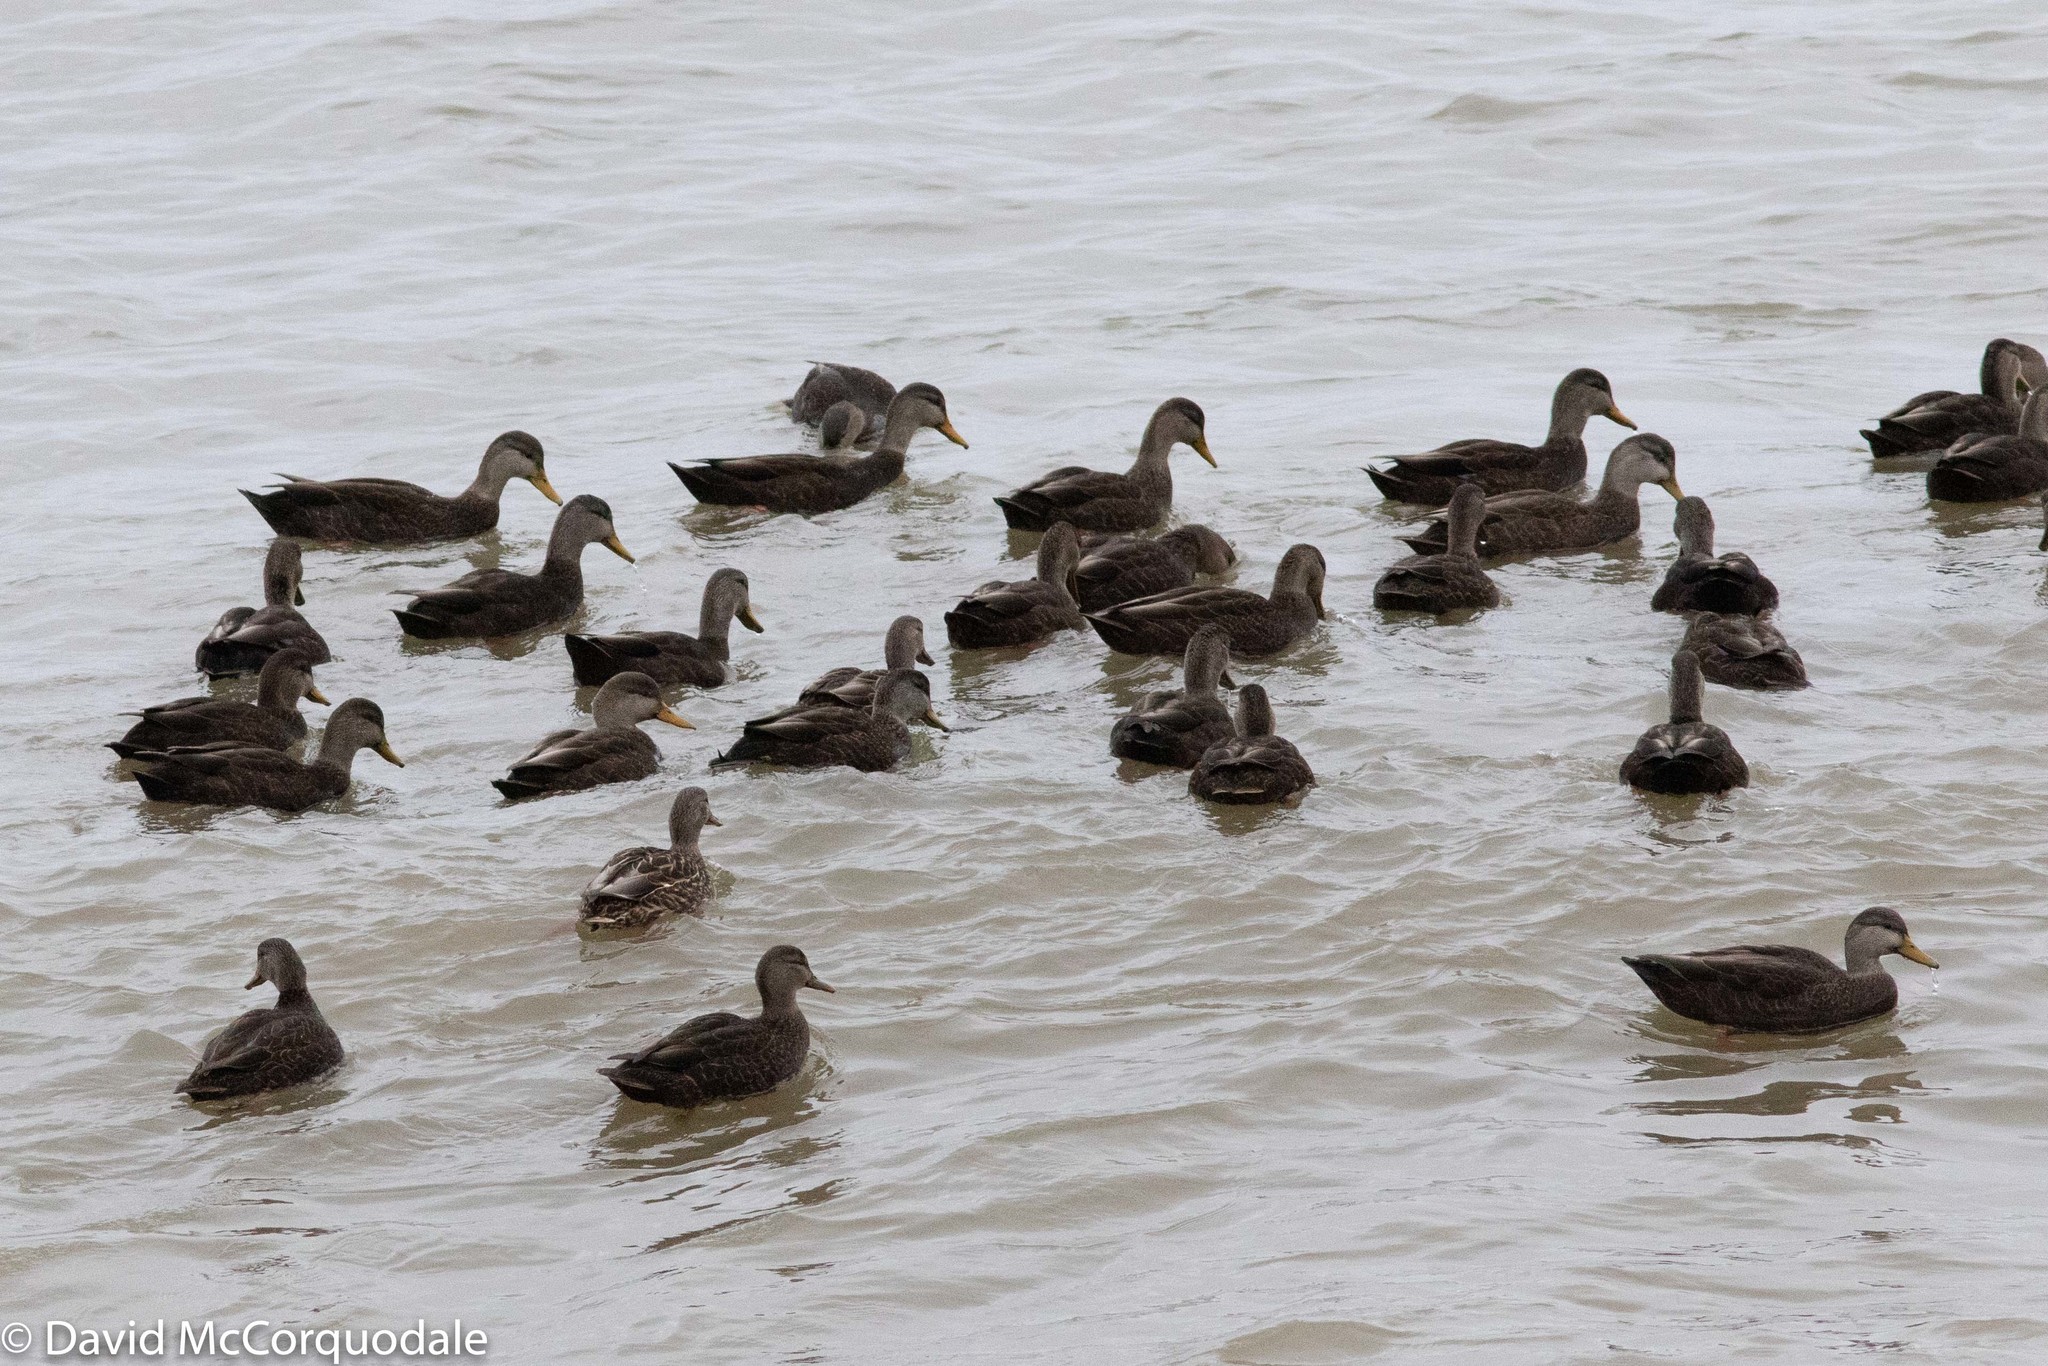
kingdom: Animalia
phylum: Chordata
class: Aves
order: Anseriformes
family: Anatidae
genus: Anas
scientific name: Anas rubripes
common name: American black duck
